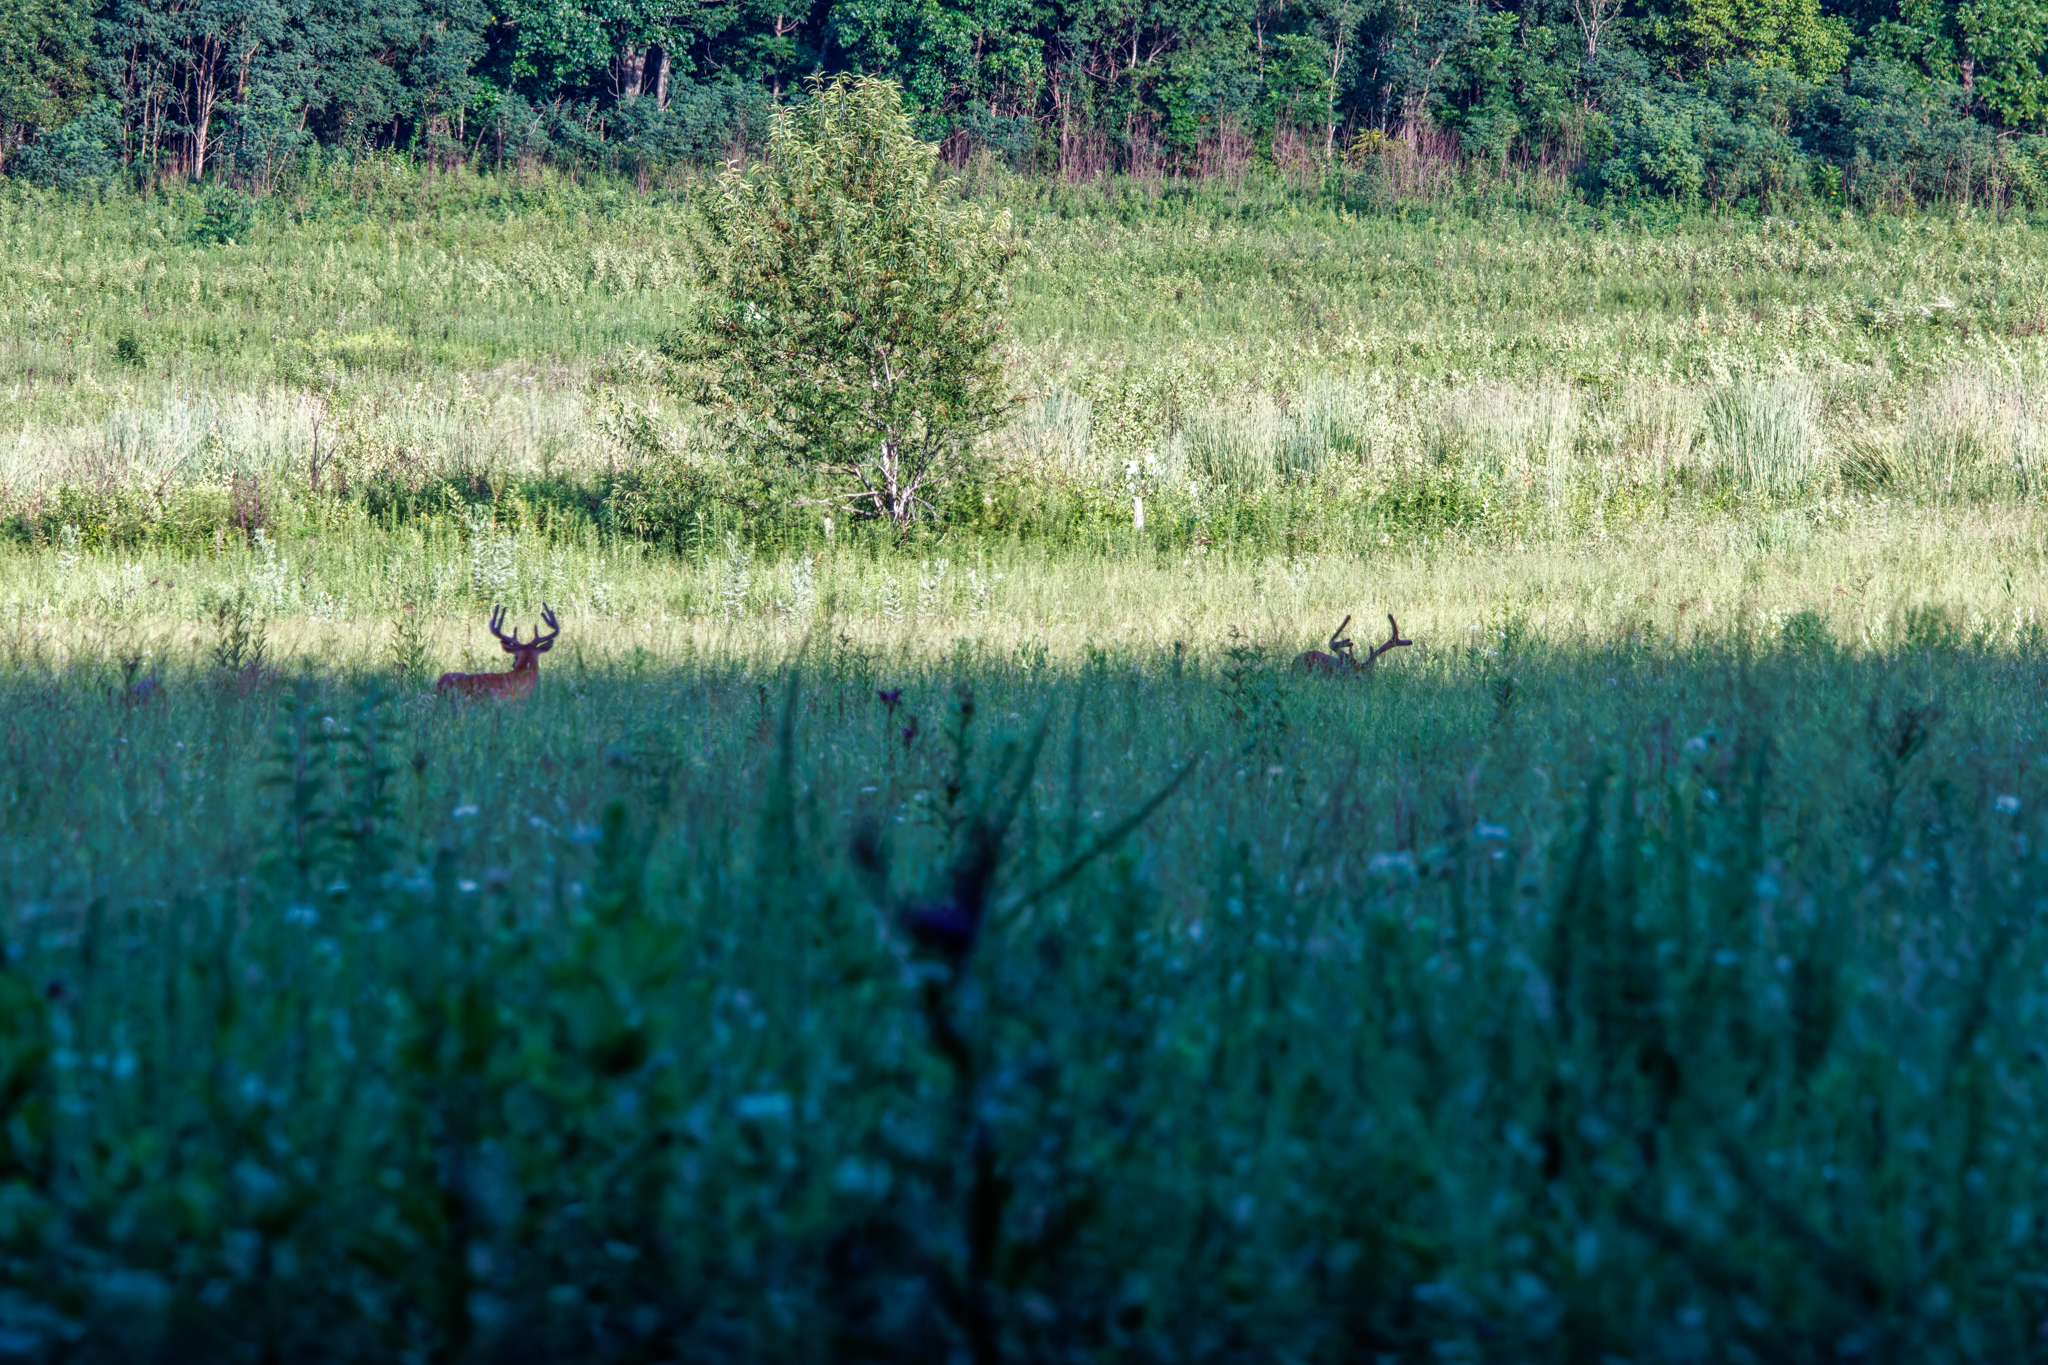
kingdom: Animalia
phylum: Chordata
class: Mammalia
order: Artiodactyla
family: Cervidae
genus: Odocoileus
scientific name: Odocoileus virginianus
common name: White-tailed deer
